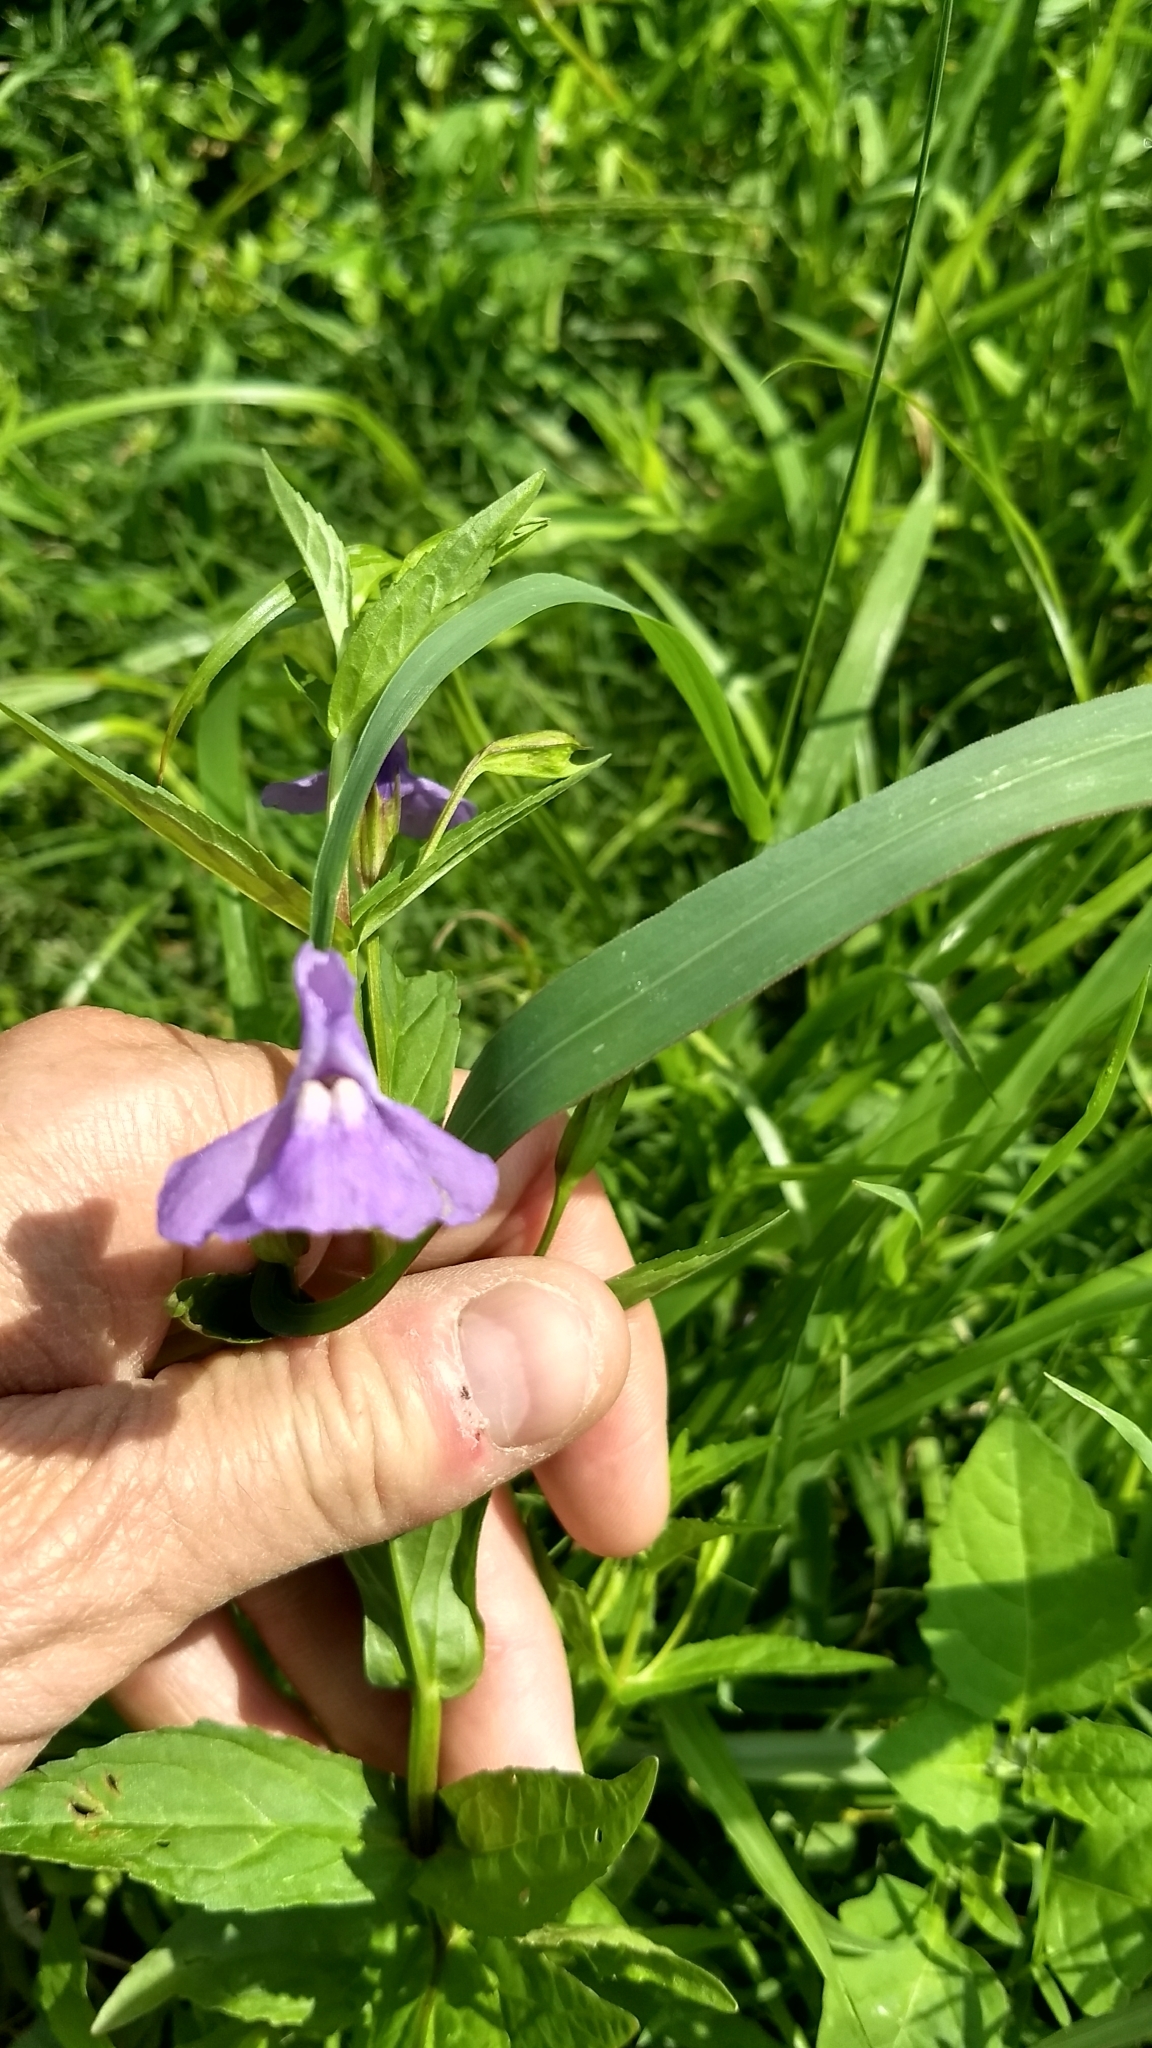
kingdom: Plantae
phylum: Tracheophyta
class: Magnoliopsida
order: Lamiales
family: Phrymaceae
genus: Mimulus
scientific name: Mimulus ringens
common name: Allegheny monkeyflower
